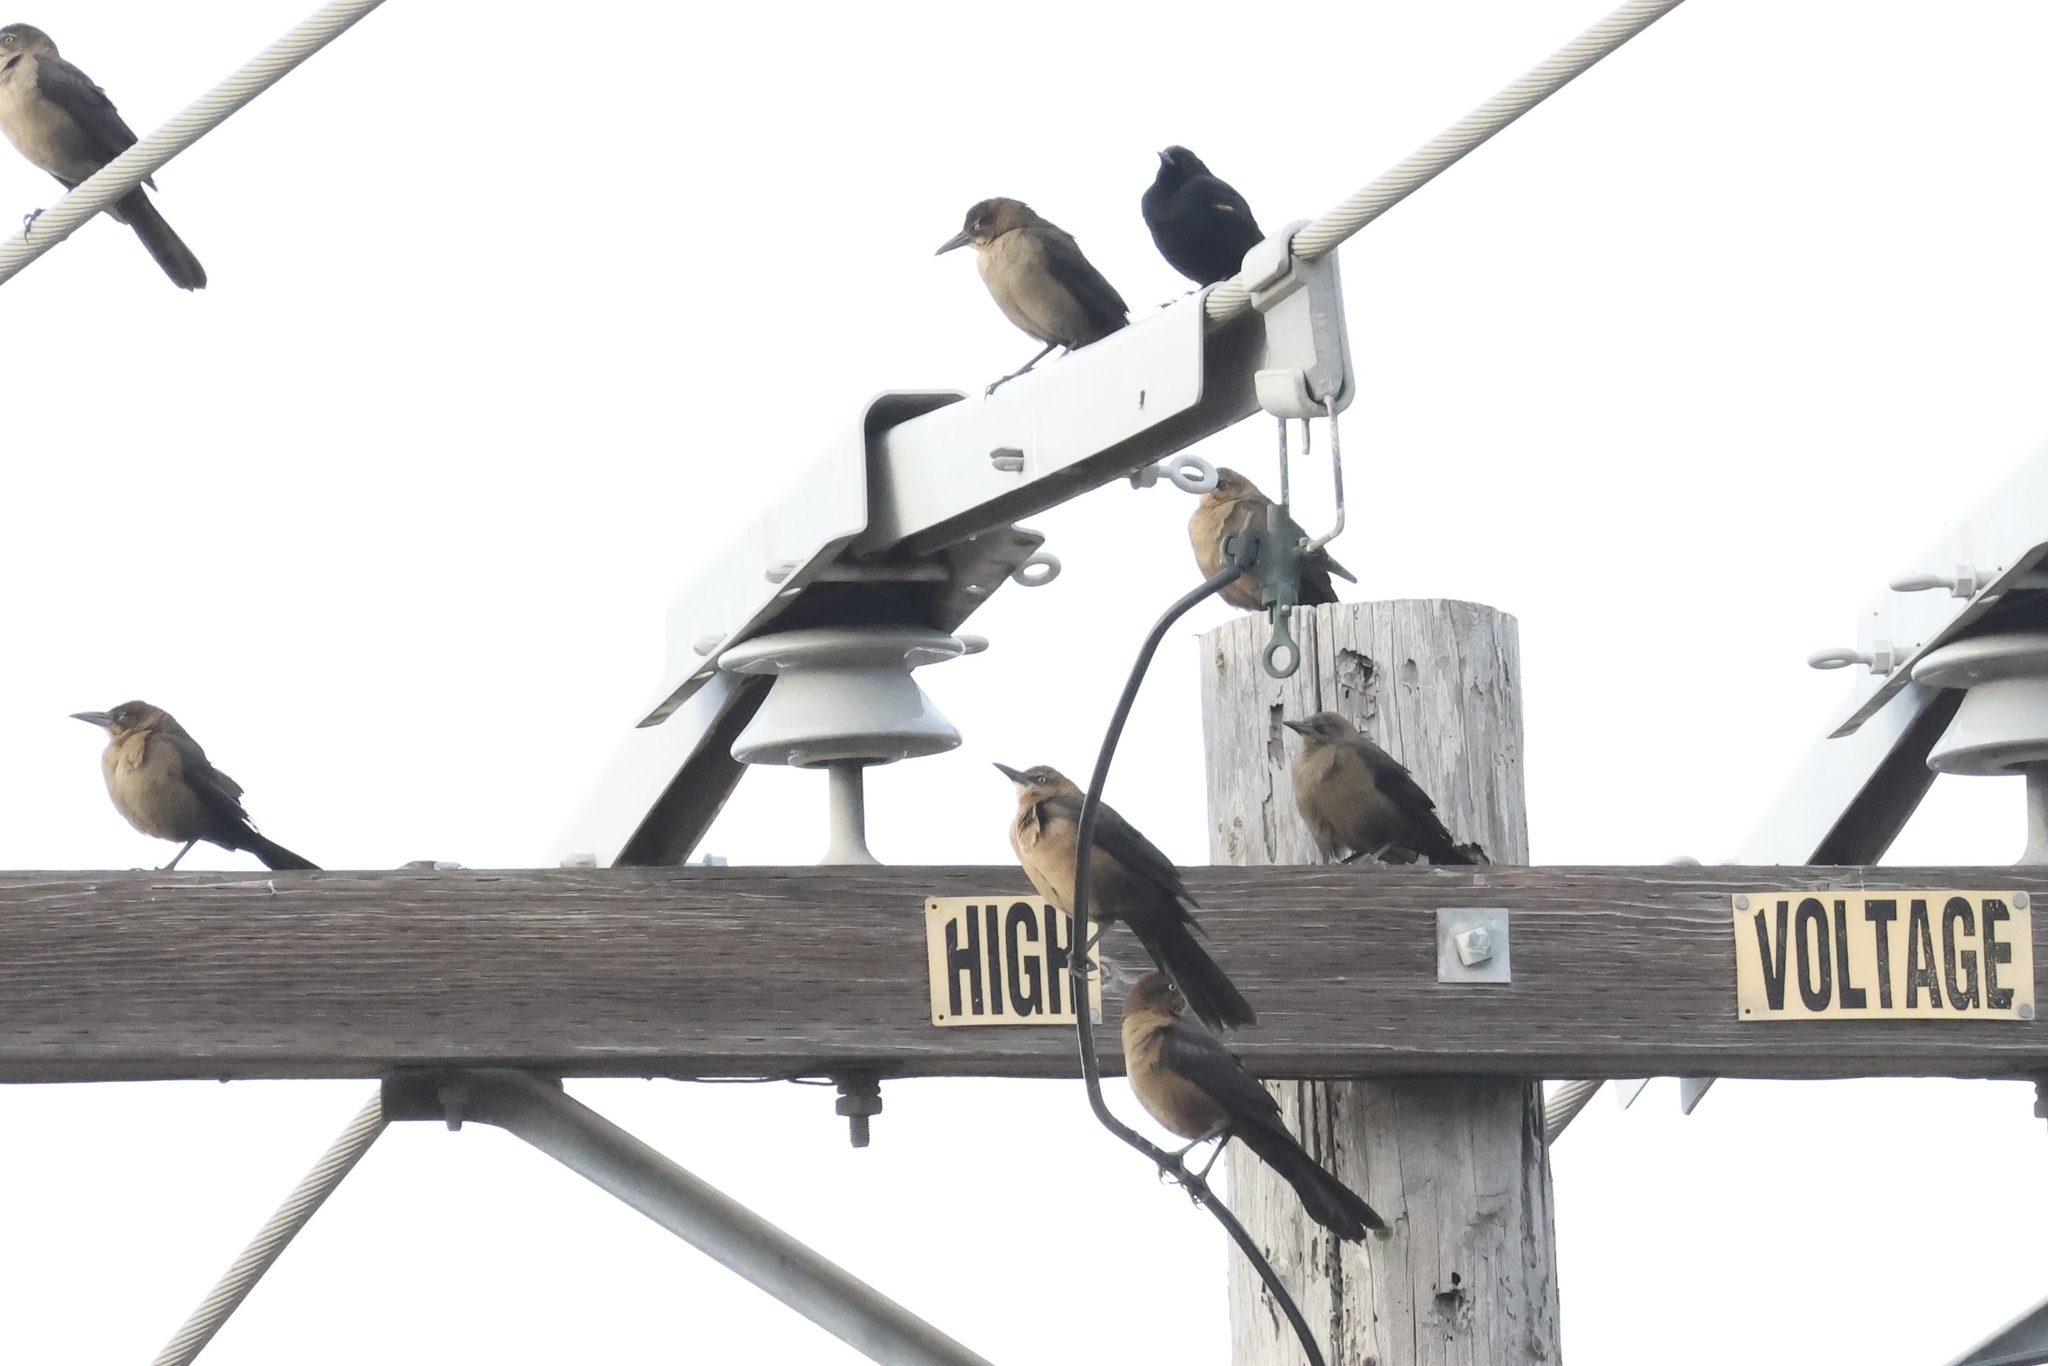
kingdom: Animalia
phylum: Chordata
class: Aves
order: Passeriformes
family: Icteridae
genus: Quiscalus
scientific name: Quiscalus mexicanus
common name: Great-tailed grackle
